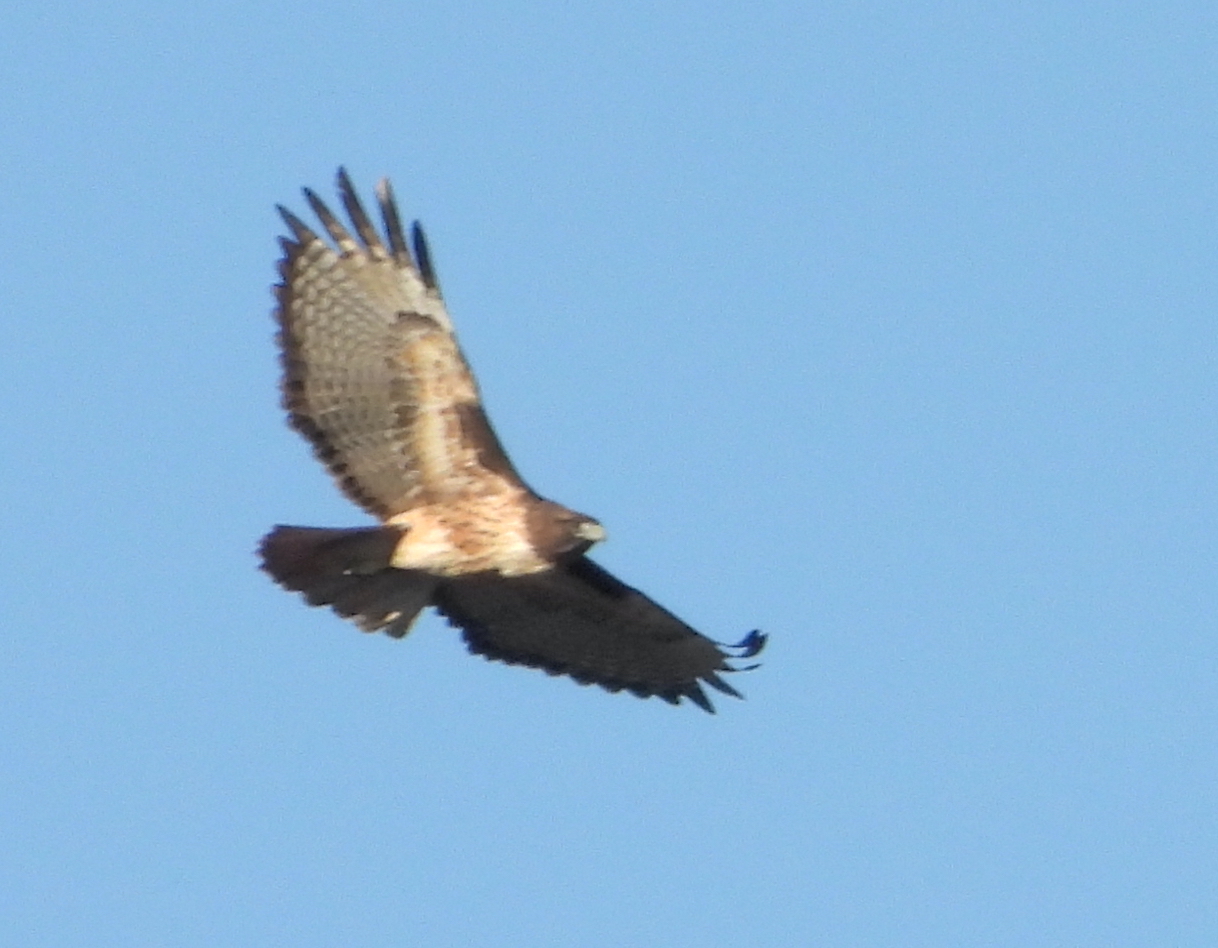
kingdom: Animalia
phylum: Chordata
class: Aves
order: Accipitriformes
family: Accipitridae
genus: Buteo
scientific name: Buteo jamaicensis
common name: Red-tailed hawk
